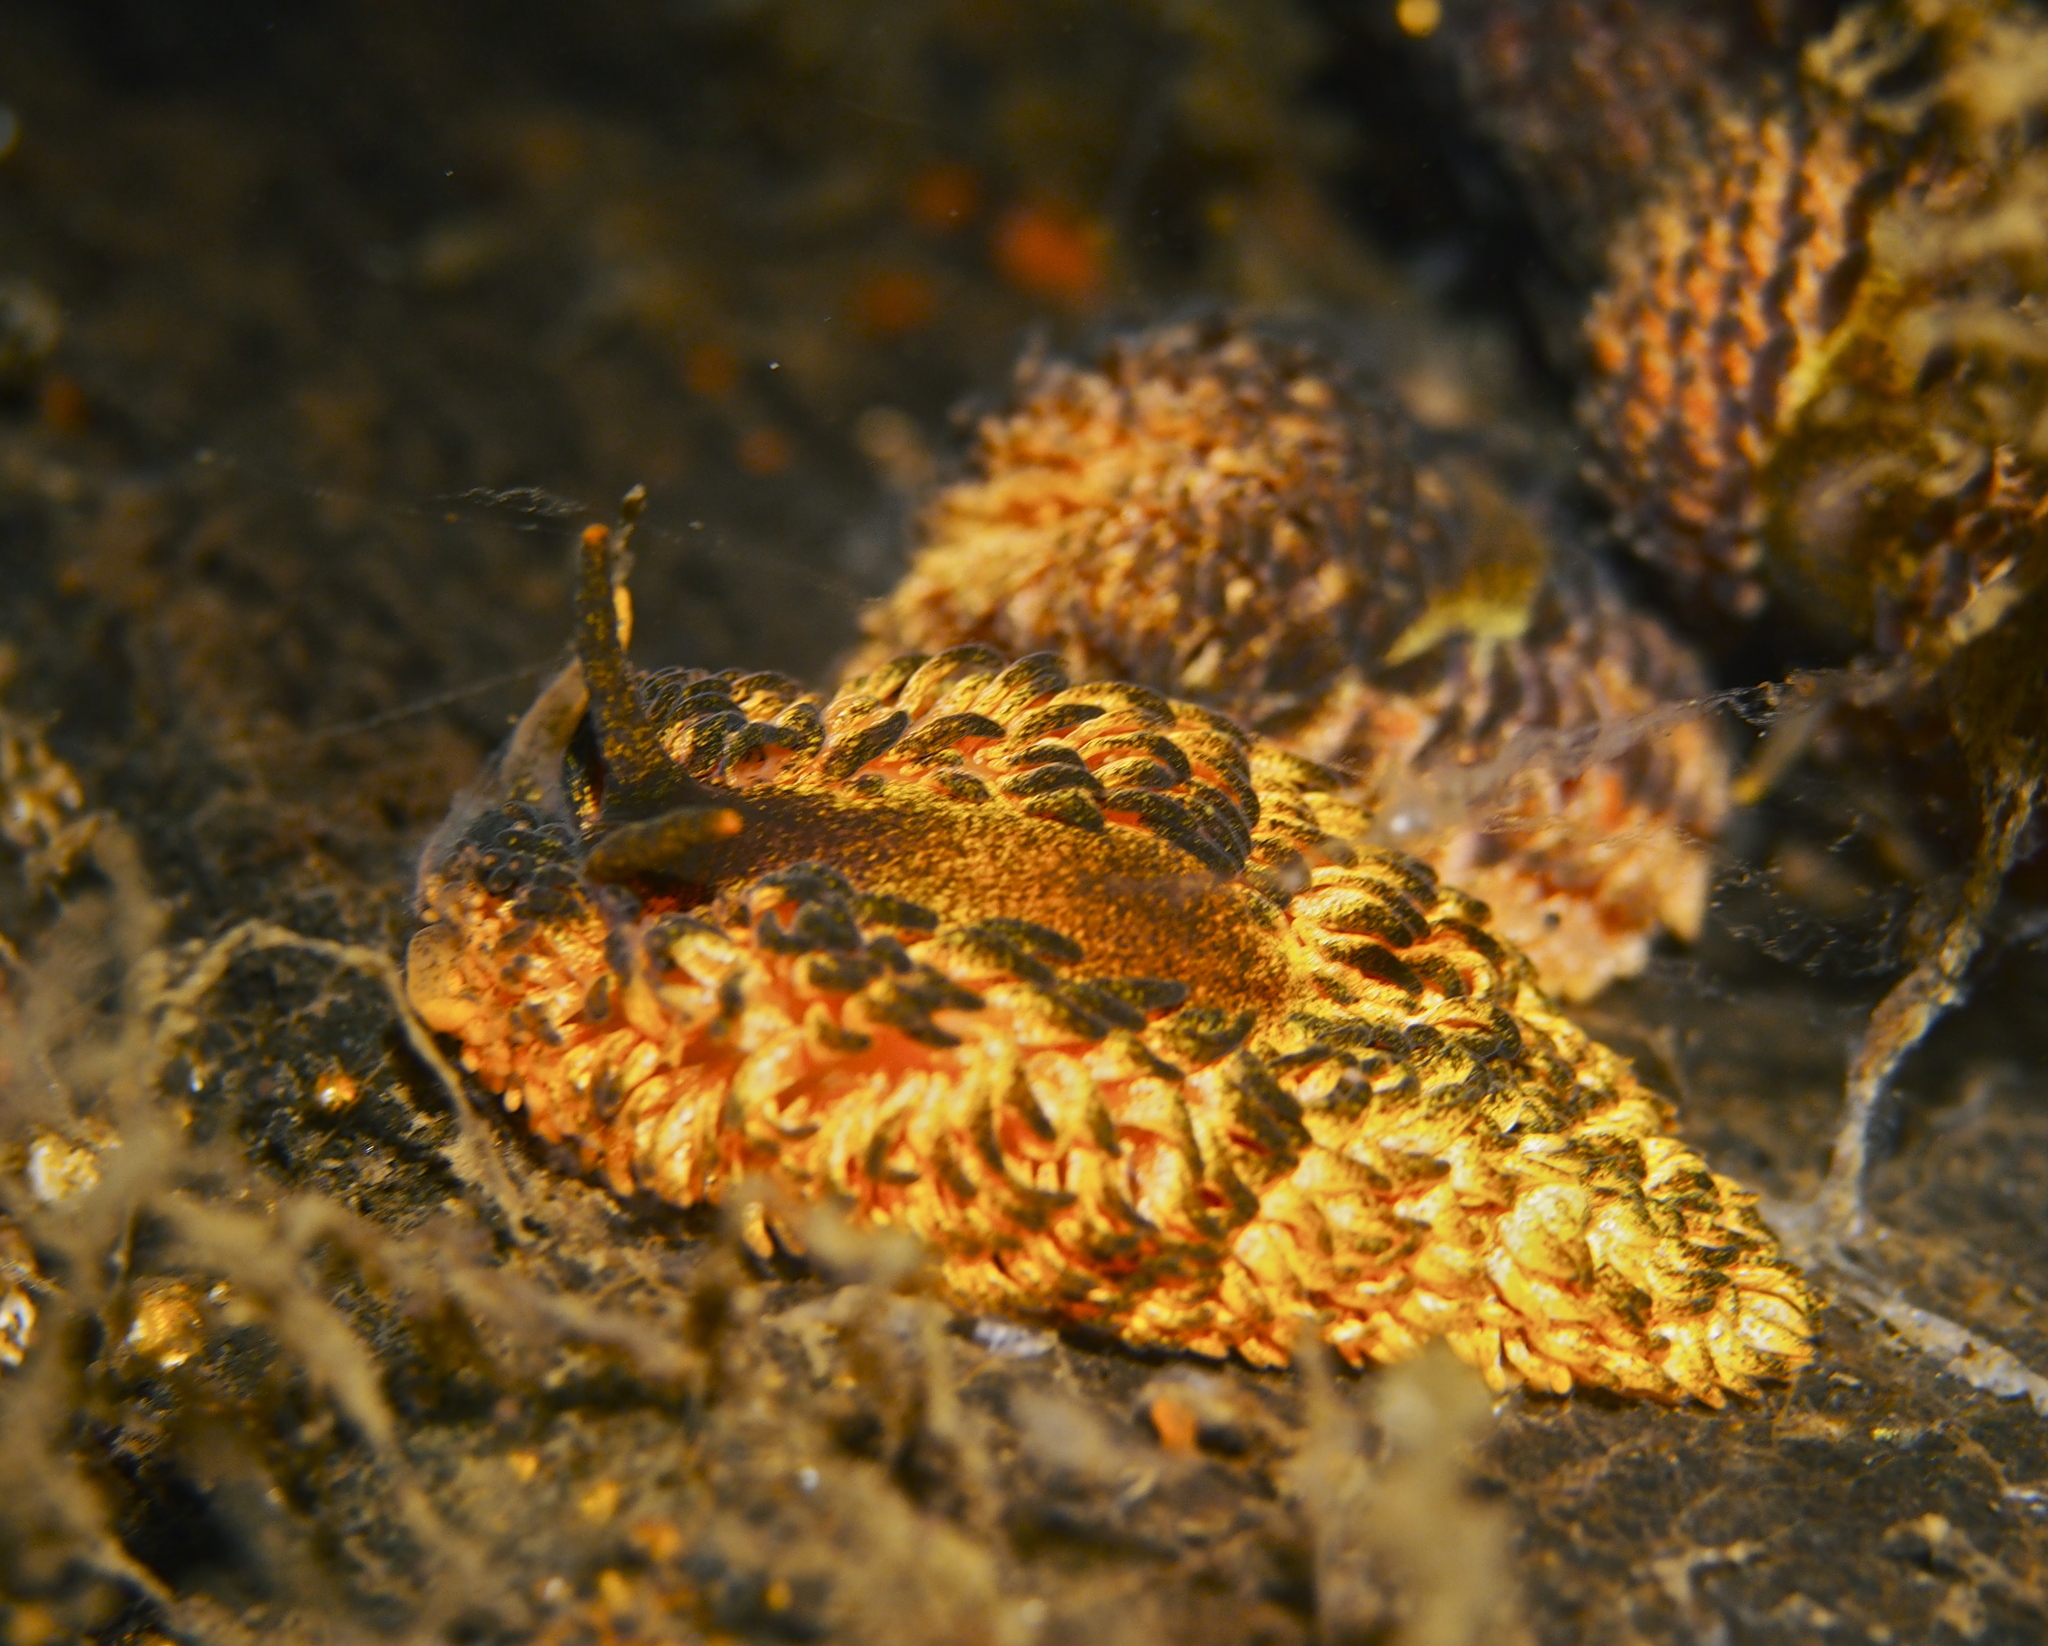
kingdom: Animalia
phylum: Mollusca
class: Gastropoda
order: Nudibranchia
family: Aeolidiidae
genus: Aeolidia
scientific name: Aeolidia papillosa
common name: Common grey sea slug
